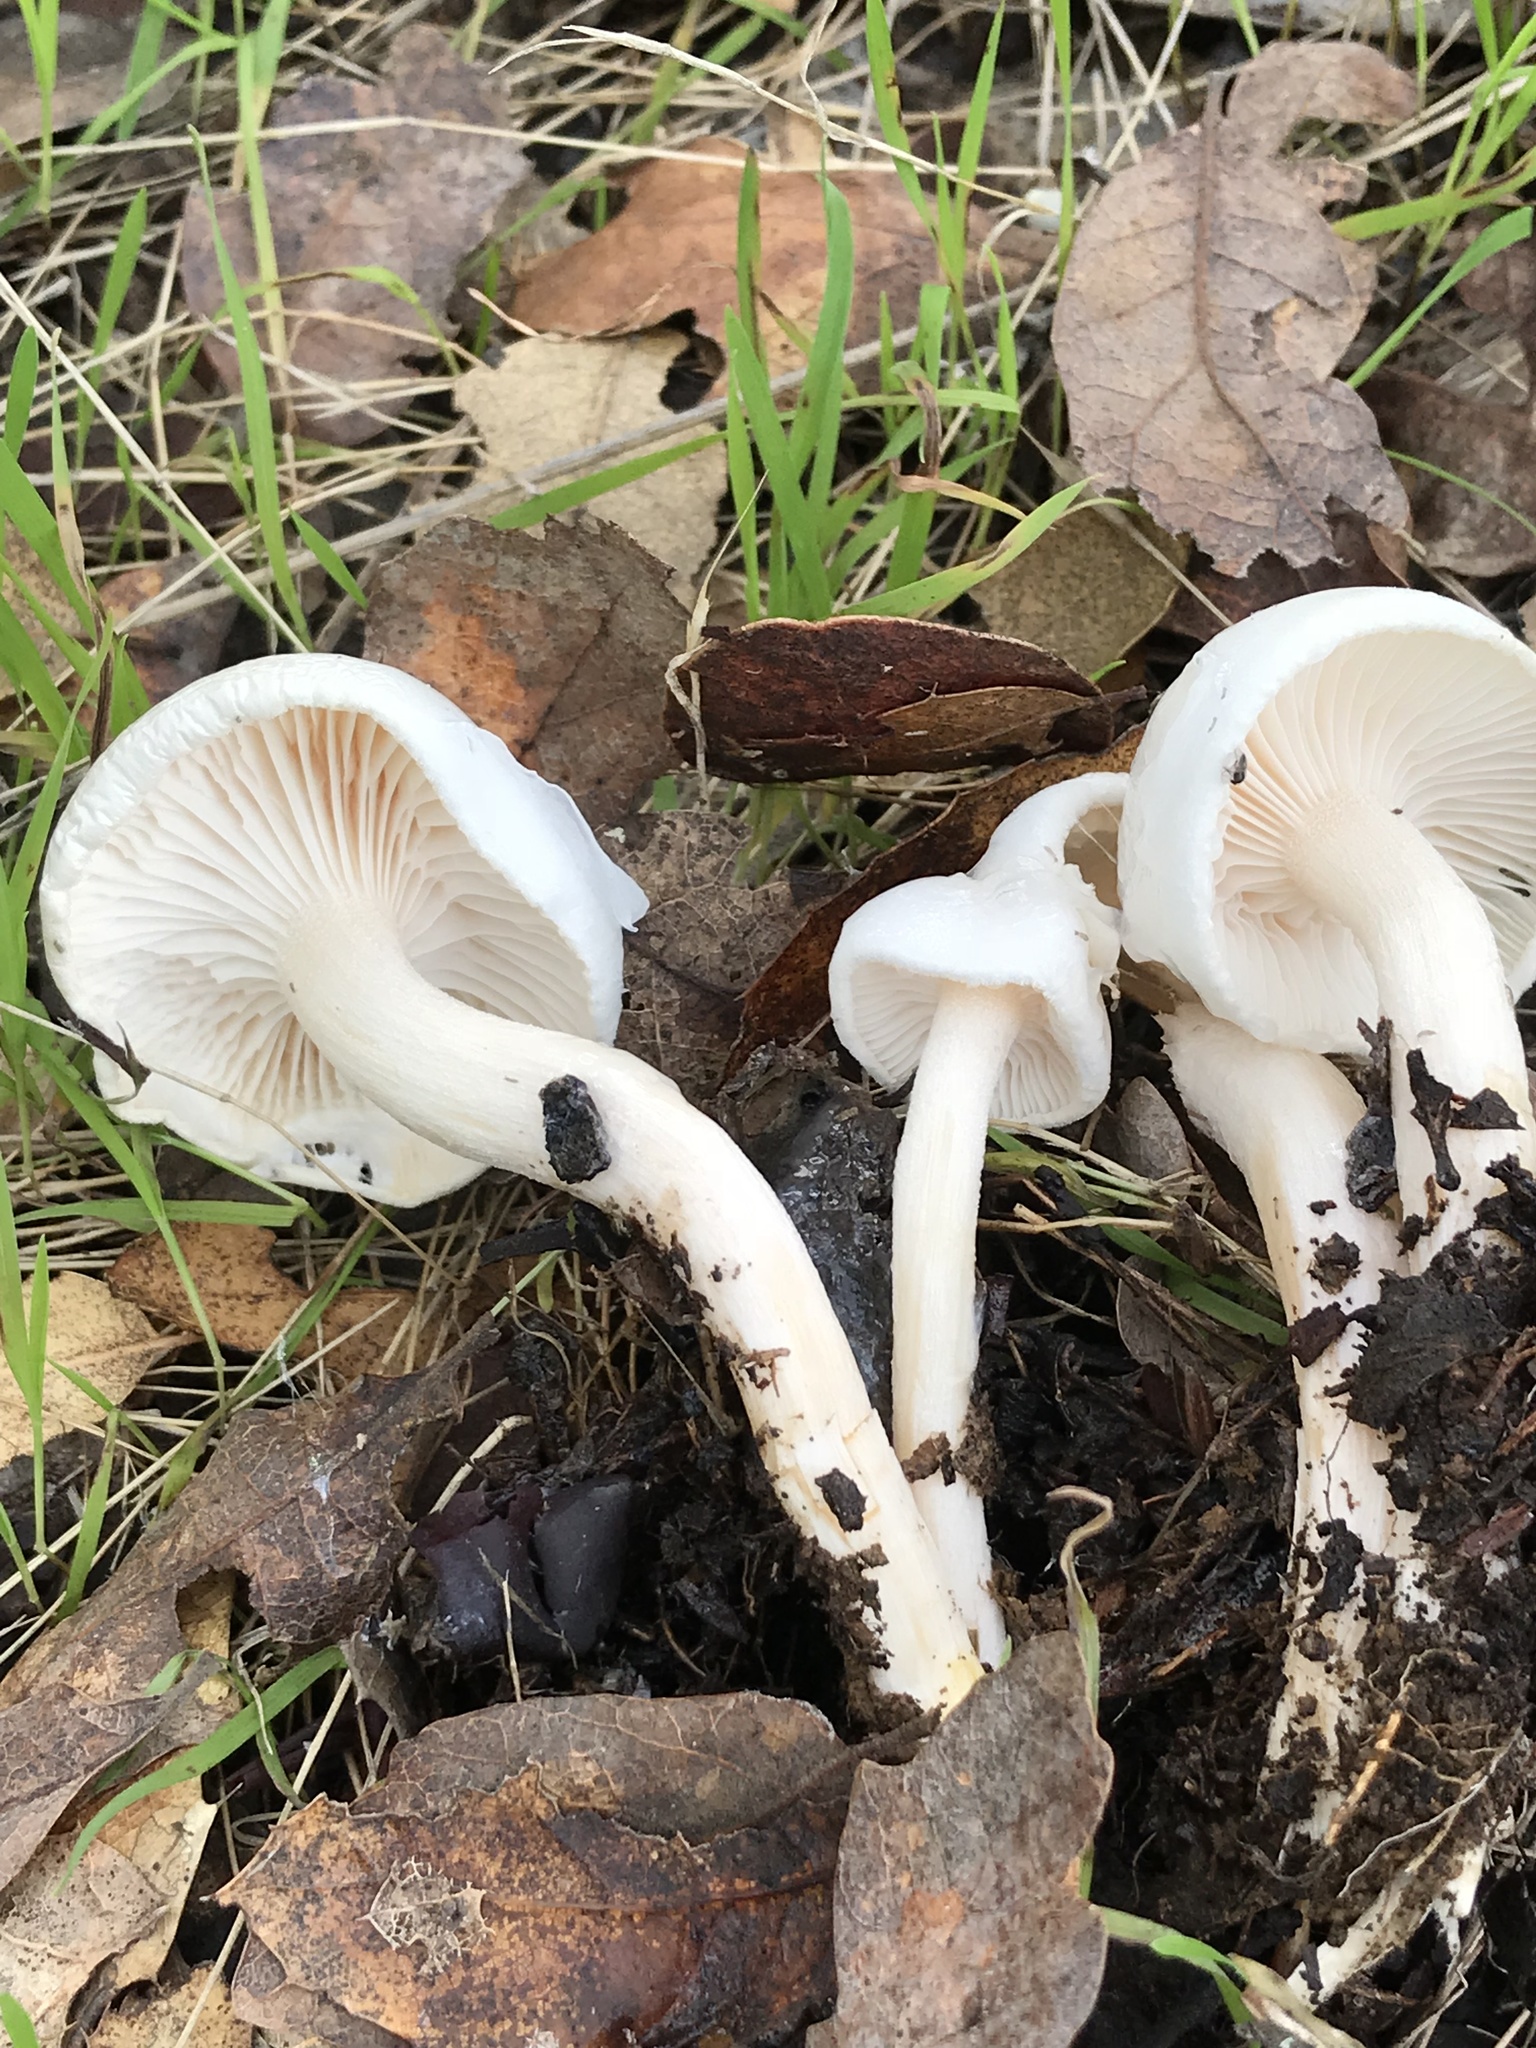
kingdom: Fungi
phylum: Basidiomycota
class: Agaricomycetes
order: Agaricales
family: Hygrophoraceae
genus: Hygrophorus
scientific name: Hygrophorus eburneus
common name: Ivory wax-cap
